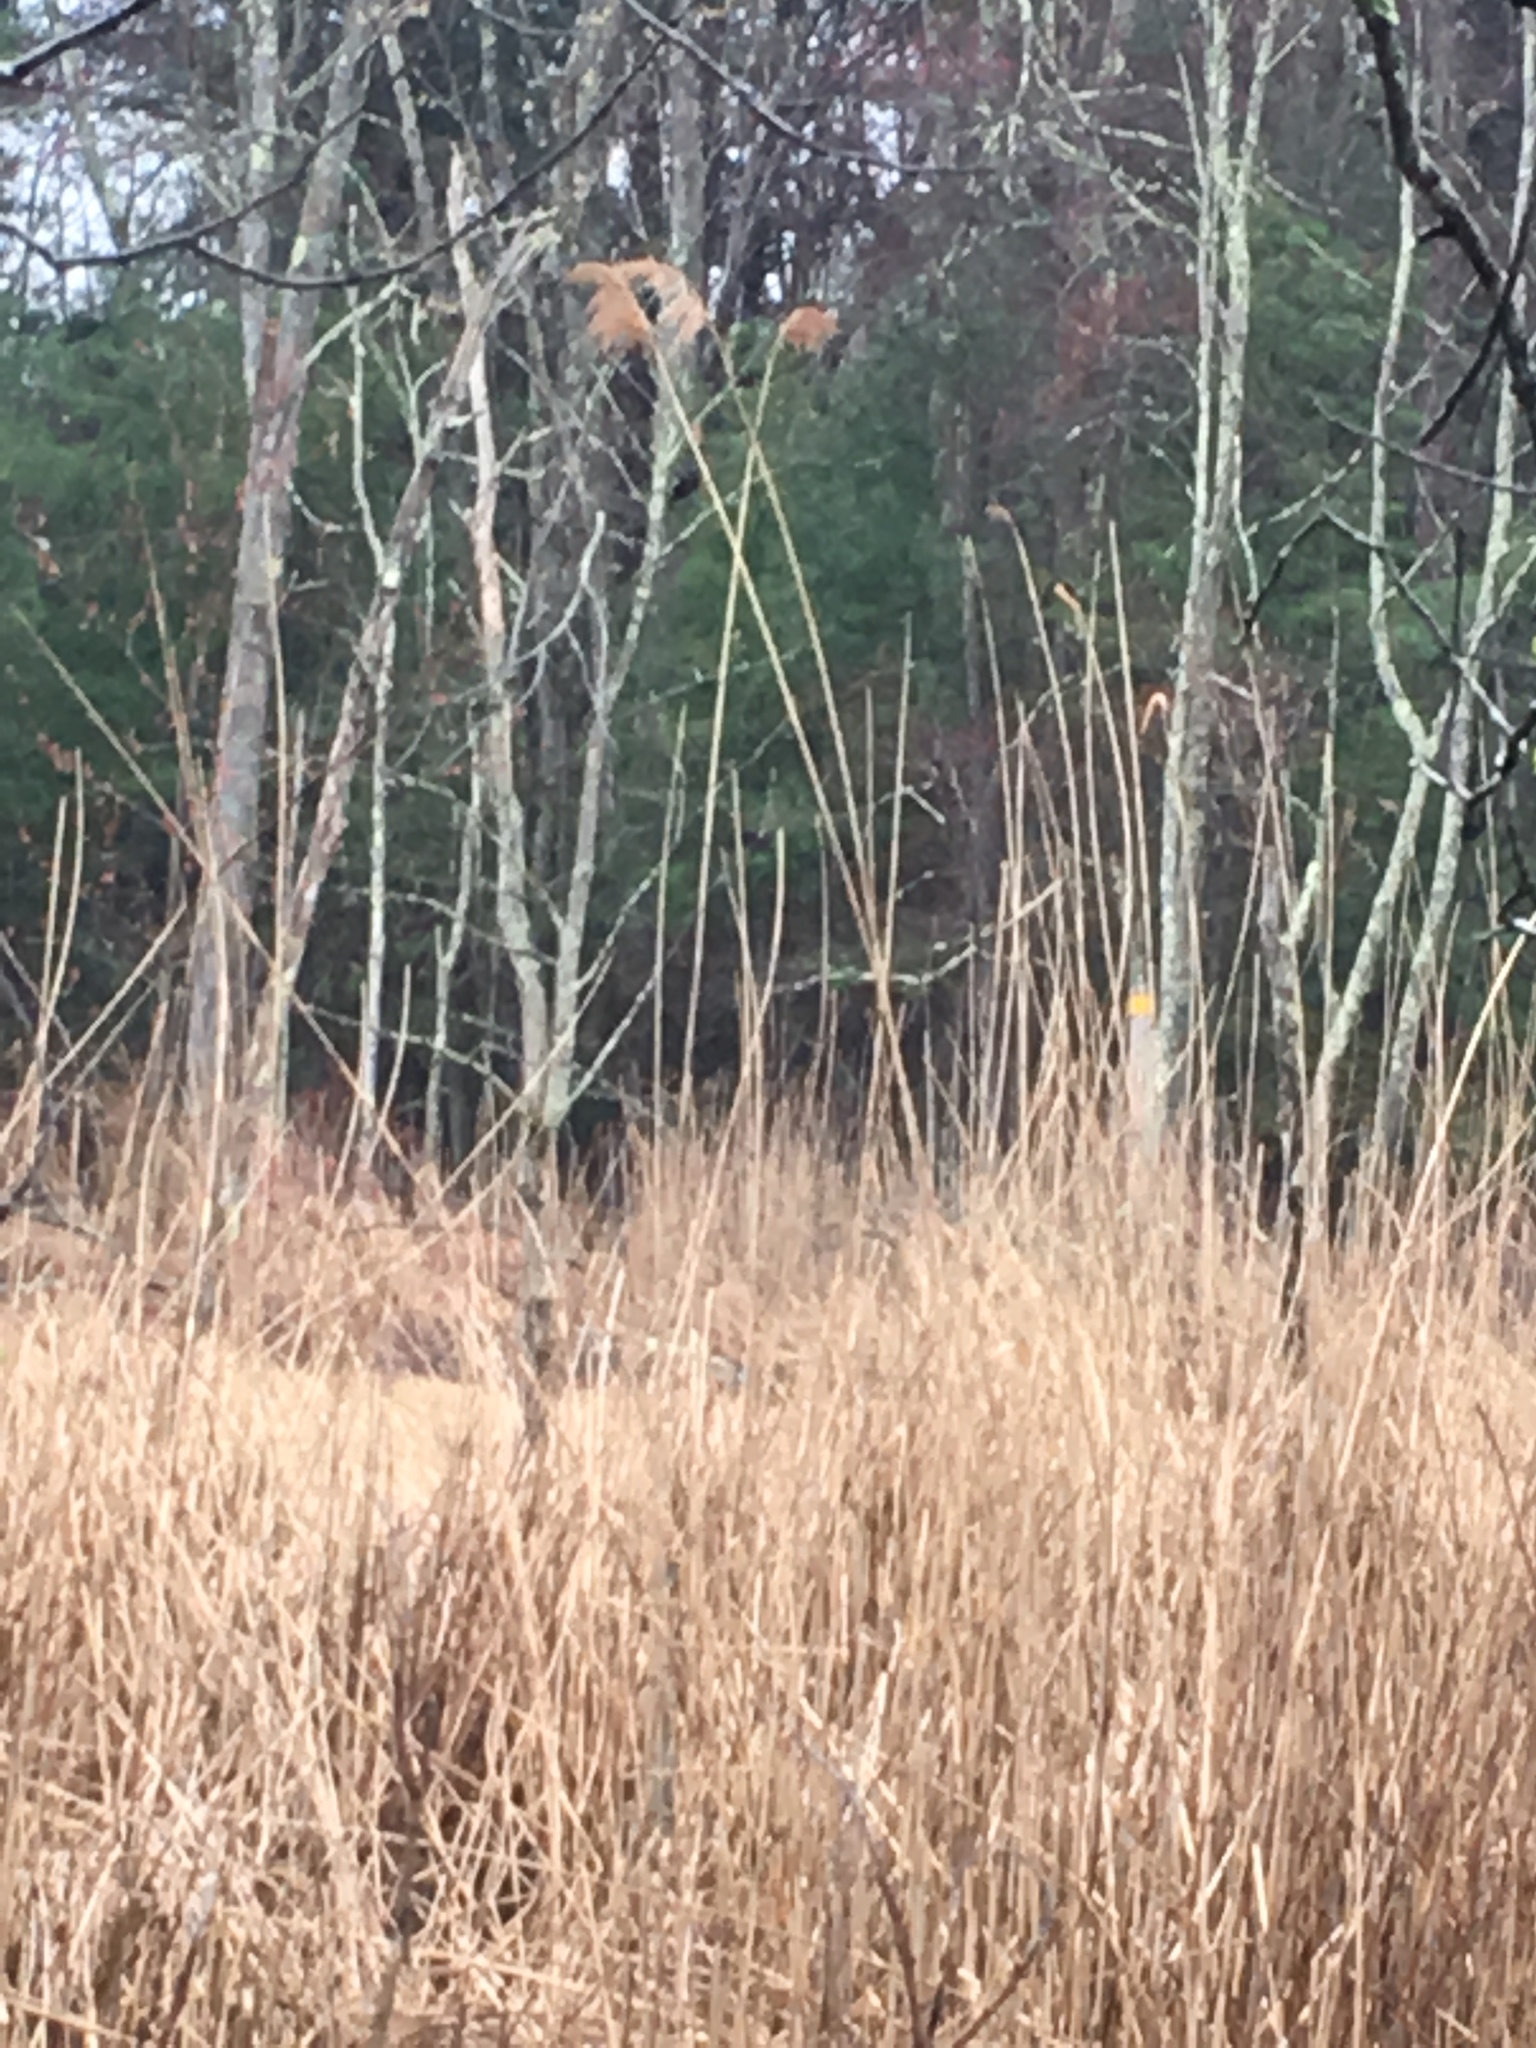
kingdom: Plantae
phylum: Tracheophyta
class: Liliopsida
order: Poales
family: Poaceae
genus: Phragmites
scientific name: Phragmites australis
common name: Common reed
